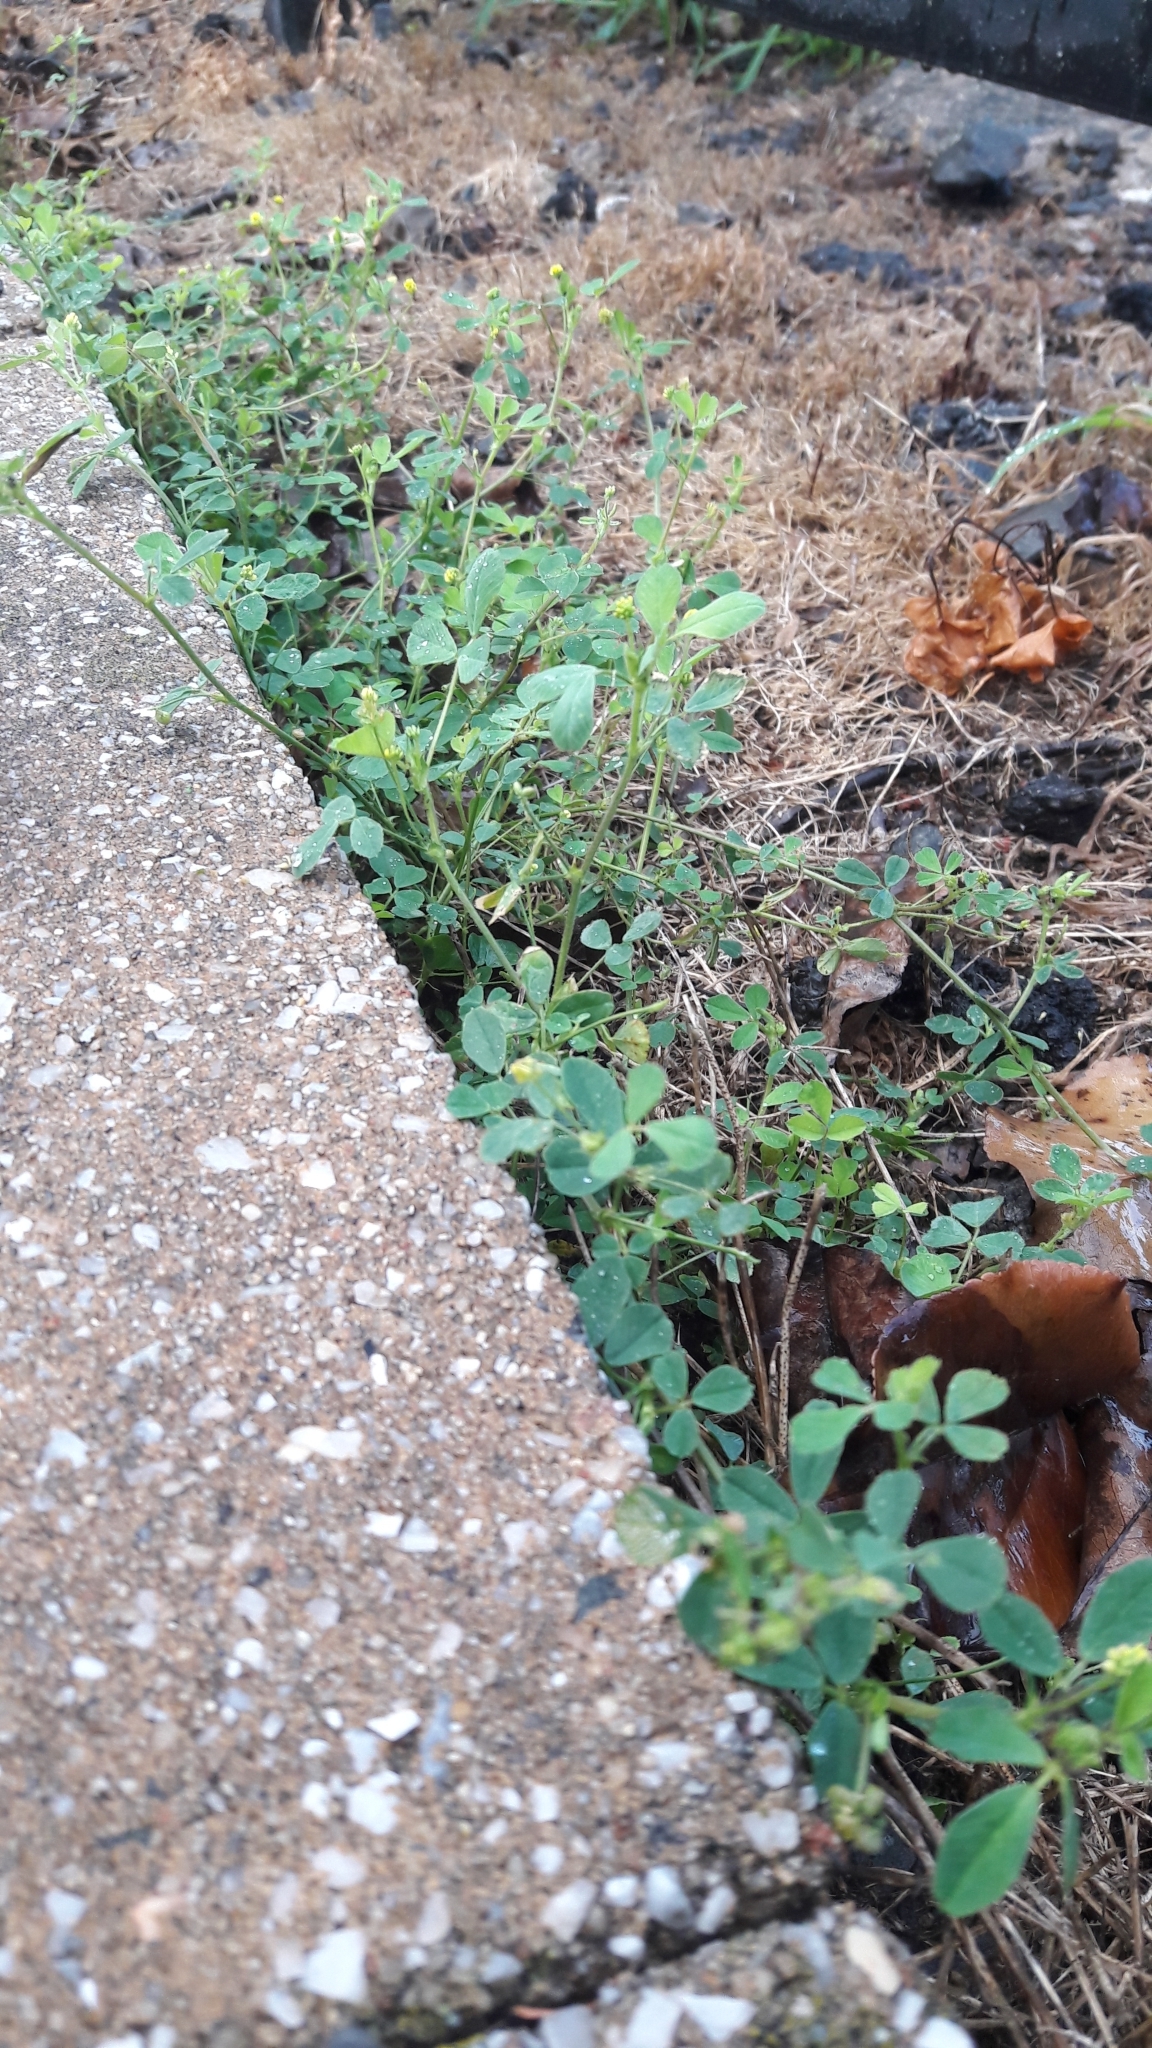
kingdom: Plantae
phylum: Tracheophyta
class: Magnoliopsida
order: Fabales
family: Fabaceae
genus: Medicago
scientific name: Medicago lupulina
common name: Black medick
